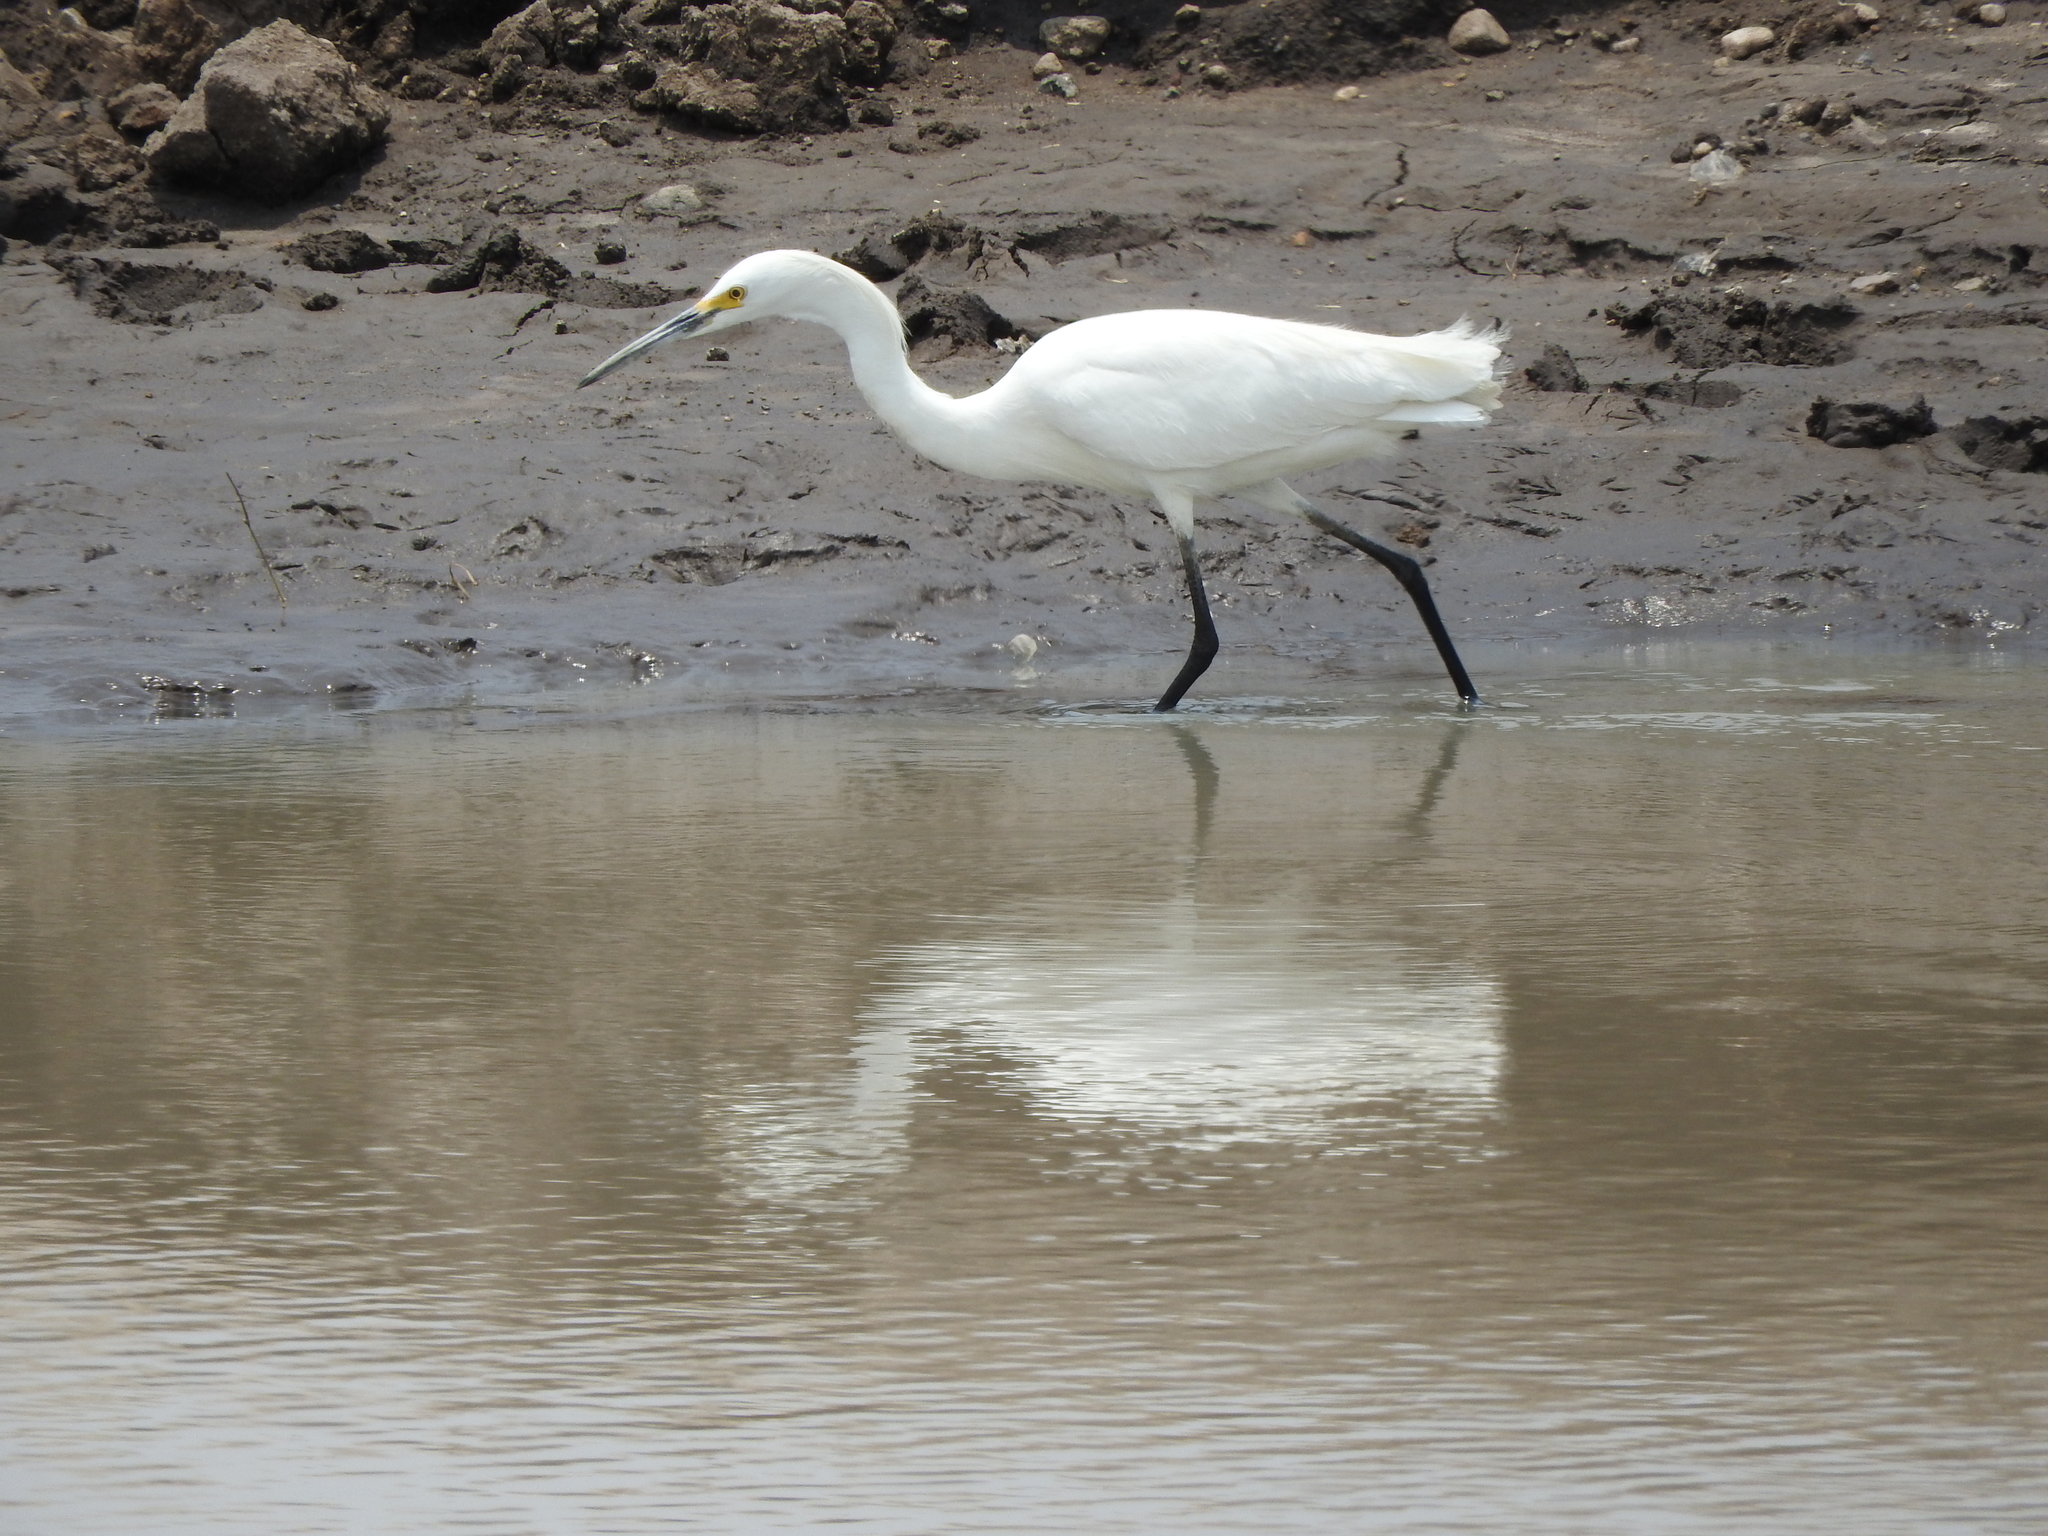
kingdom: Animalia
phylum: Chordata
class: Aves
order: Pelecaniformes
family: Ardeidae
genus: Egretta
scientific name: Egretta thula
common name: Snowy egret
